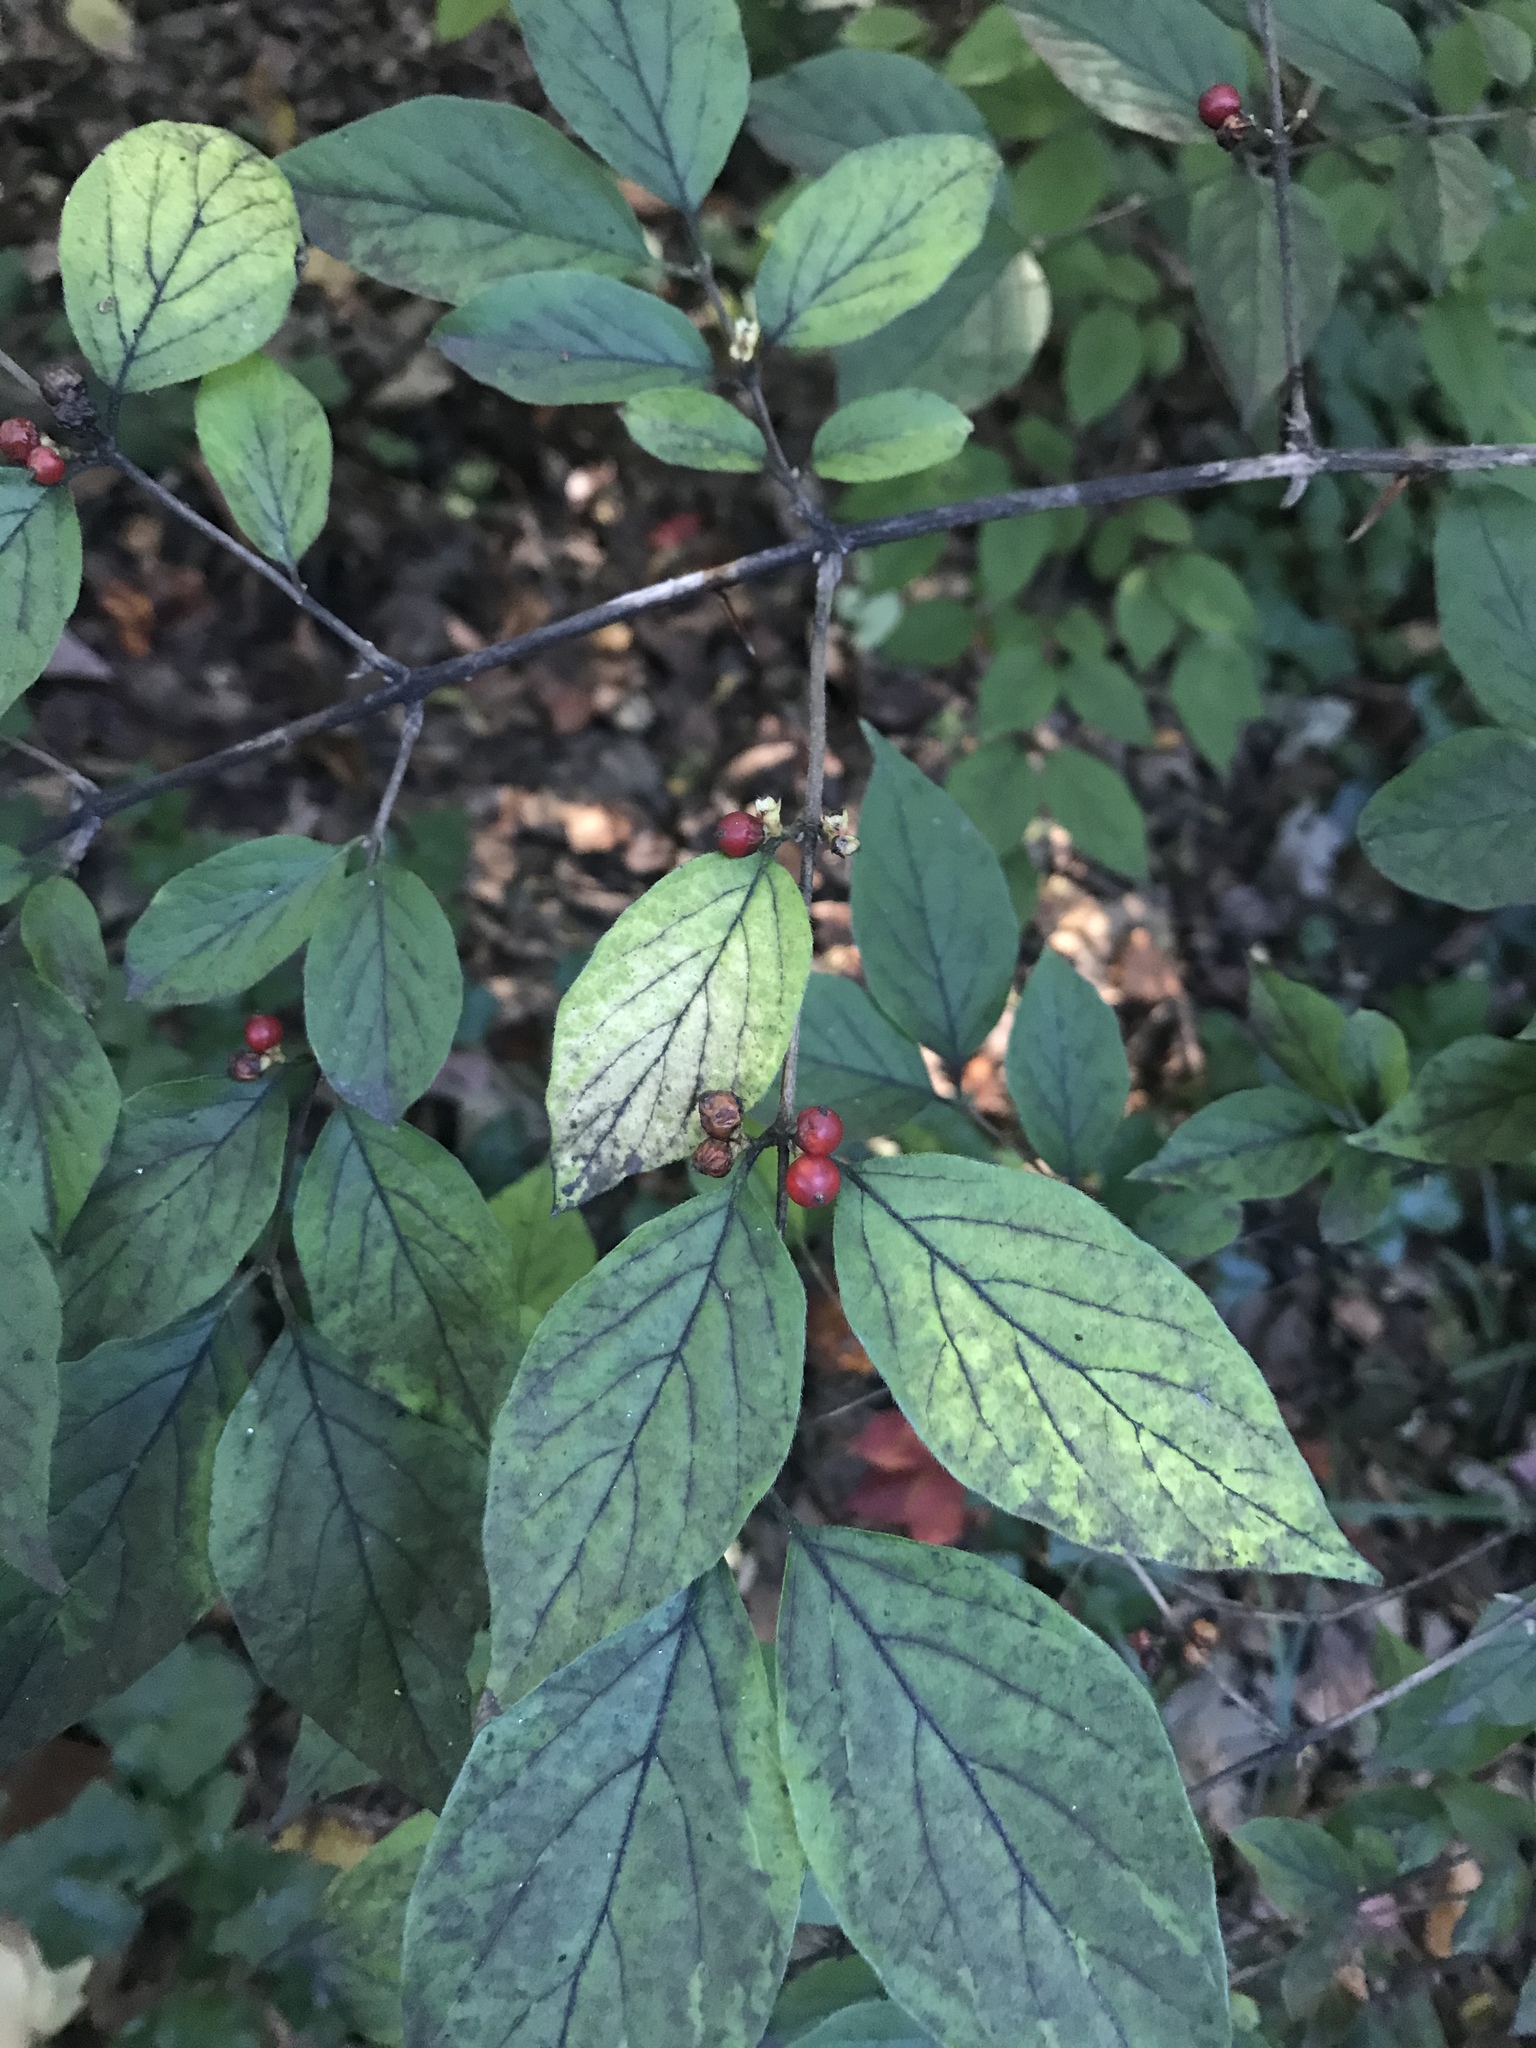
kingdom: Plantae
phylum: Tracheophyta
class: Magnoliopsida
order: Dipsacales
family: Caprifoliaceae
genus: Lonicera
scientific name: Lonicera maackii
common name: Amur honeysuckle
